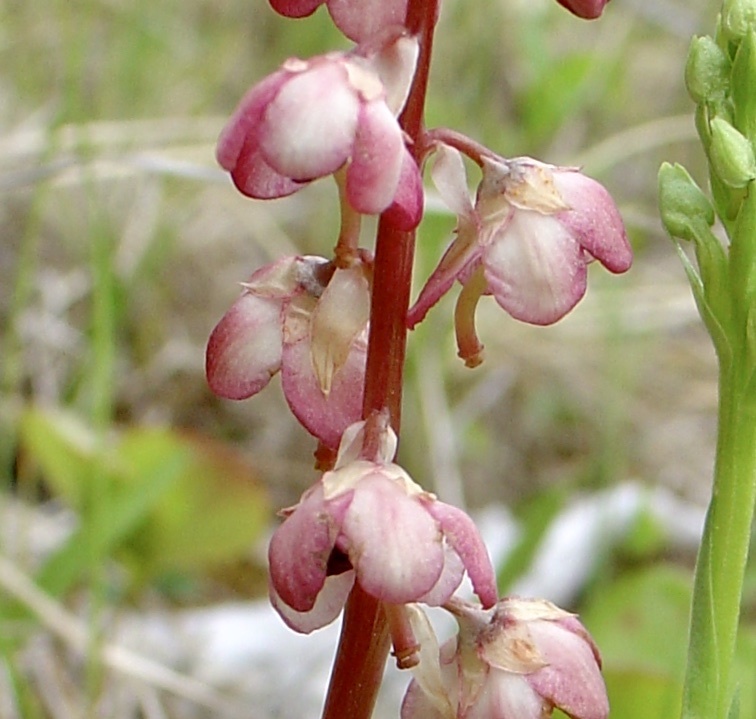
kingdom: Plantae
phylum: Tracheophyta
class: Magnoliopsida
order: Ericales
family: Ericaceae
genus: Pyrola
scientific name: Pyrola asarifolia
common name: Bog wintergreen
